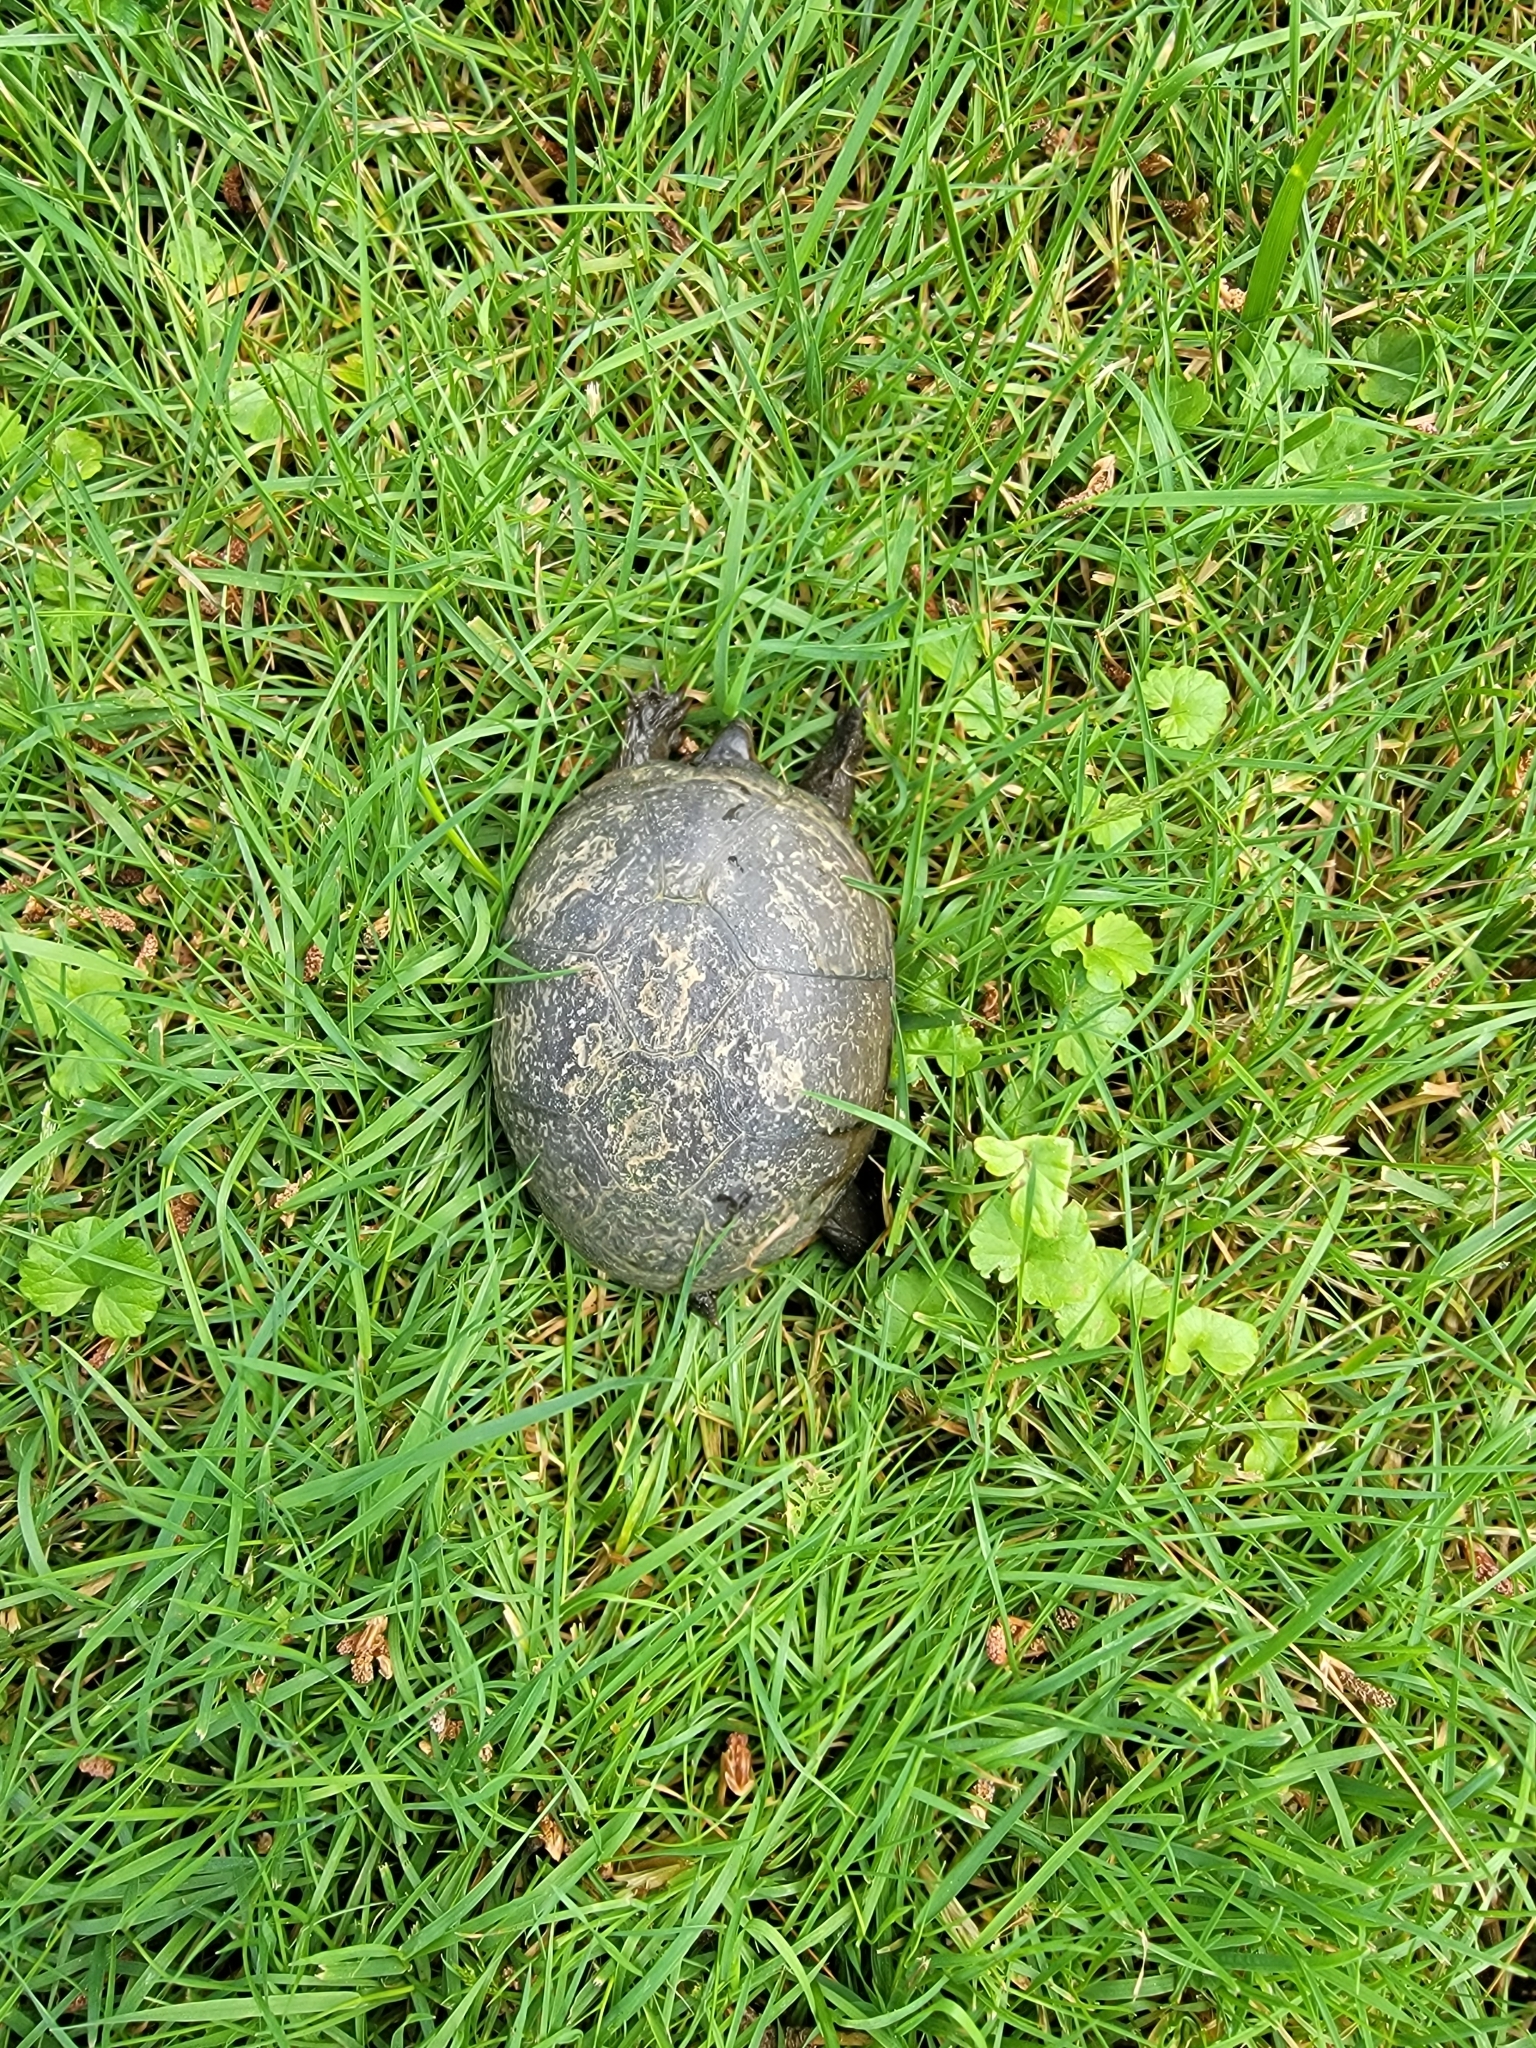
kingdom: Animalia
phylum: Chordata
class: Testudines
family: Kinosternidae
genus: Kinosternon
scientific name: Kinosternon subrubrum
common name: Eastern mud turtle
